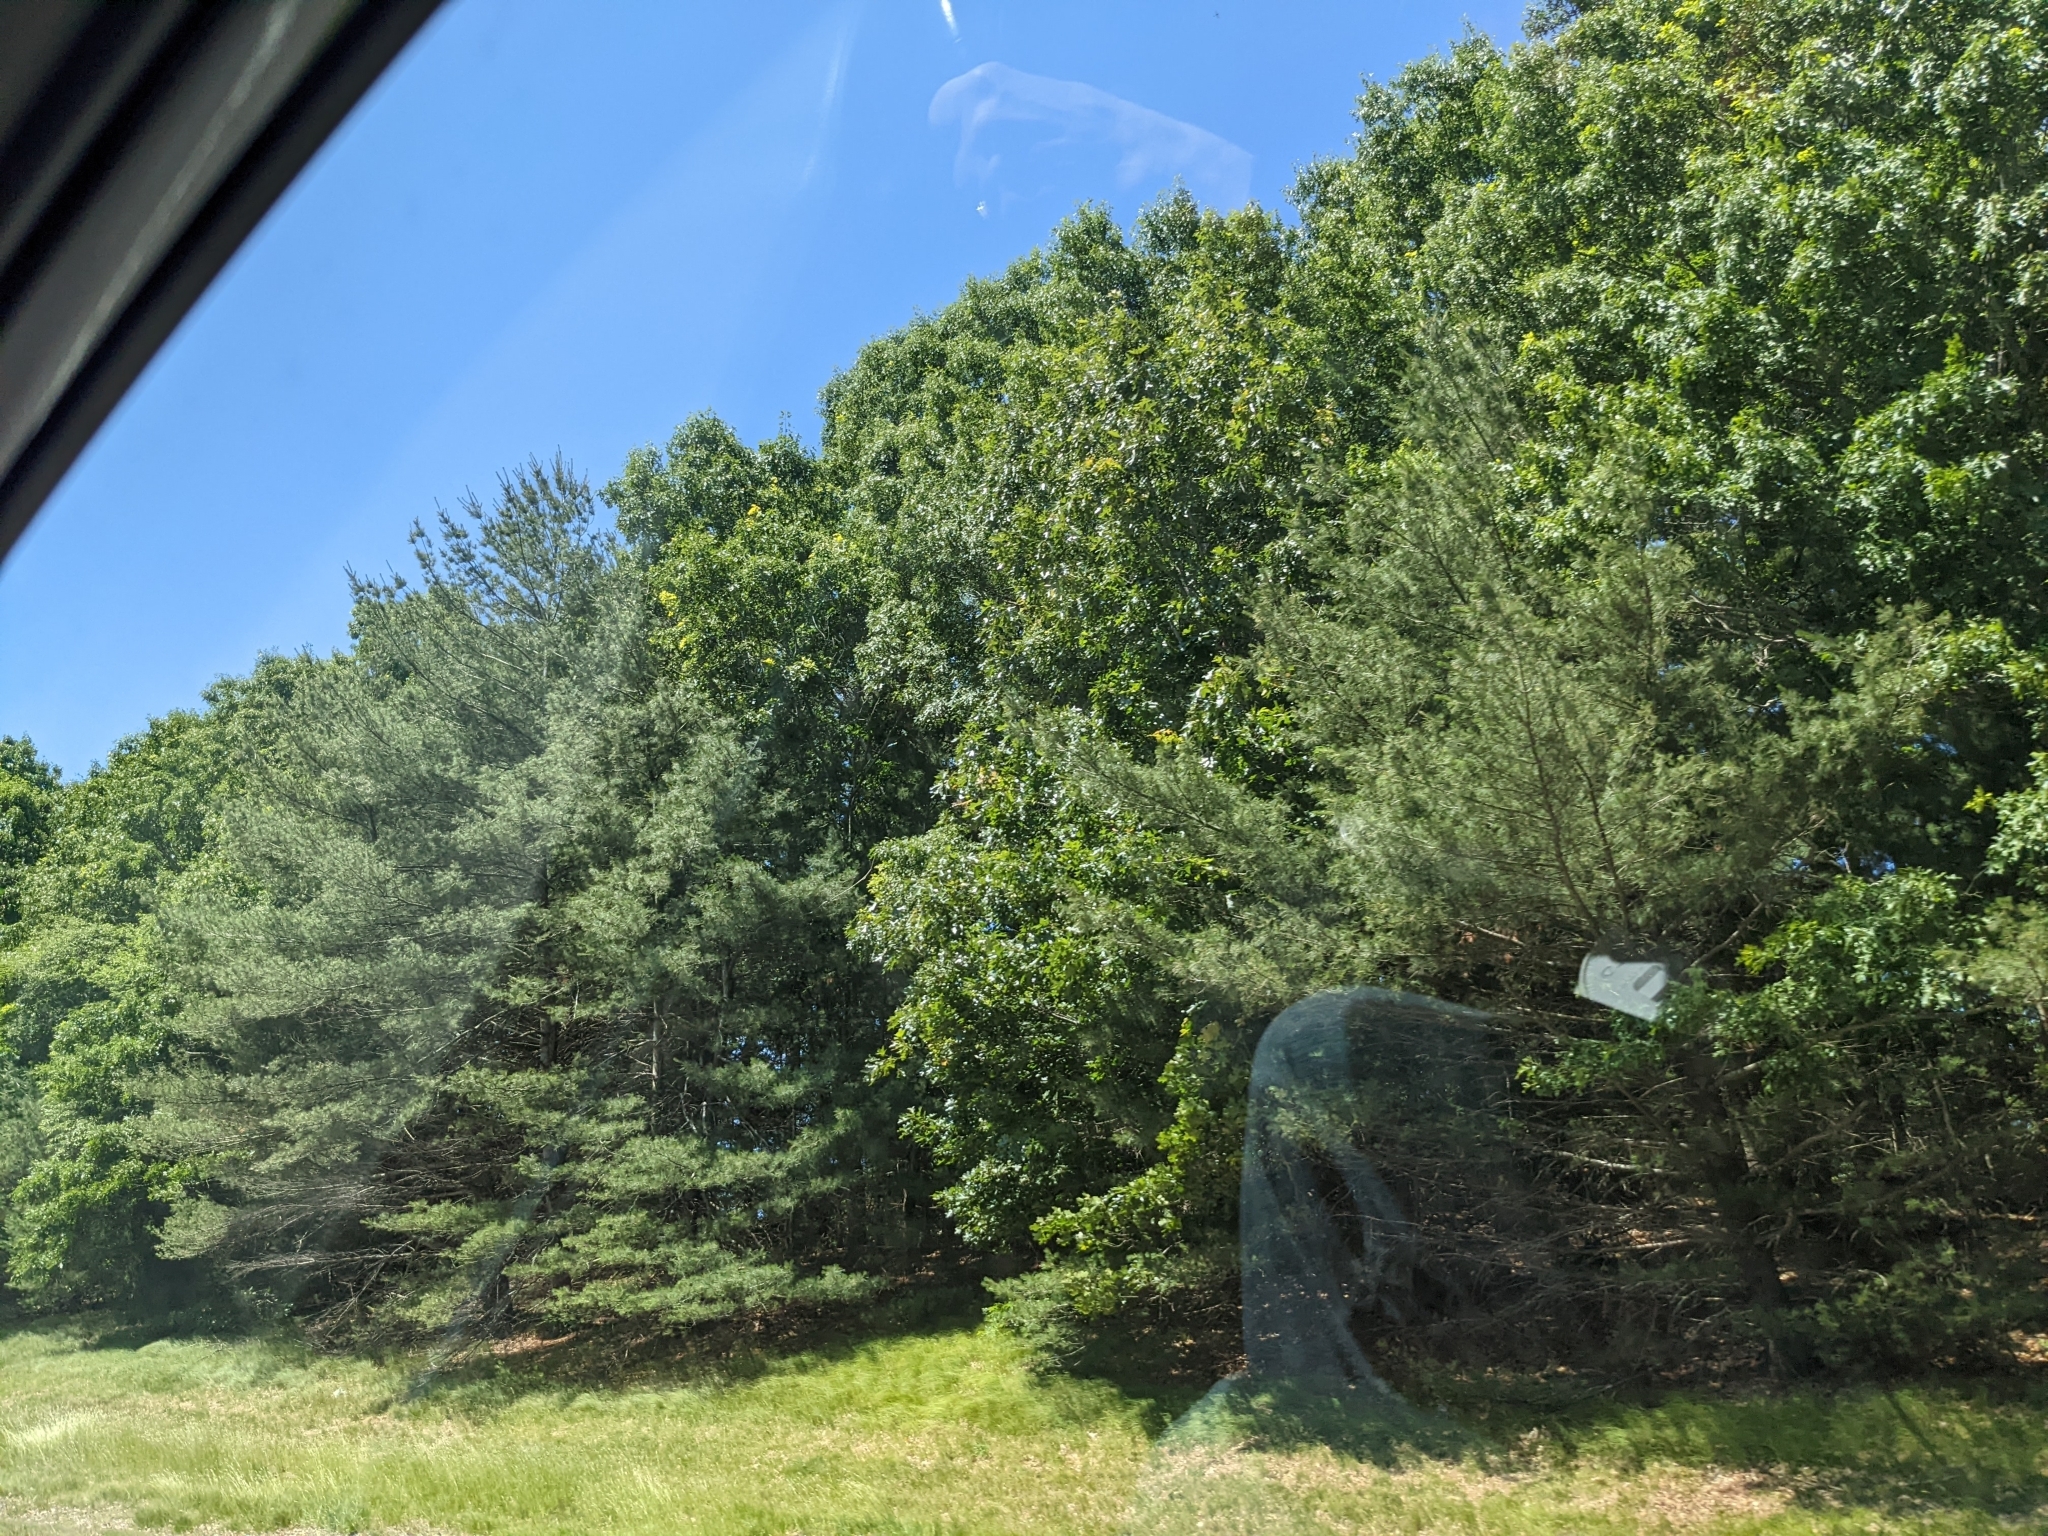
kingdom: Plantae
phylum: Tracheophyta
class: Pinopsida
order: Pinales
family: Pinaceae
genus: Pinus
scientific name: Pinus strobus
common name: Weymouth pine
